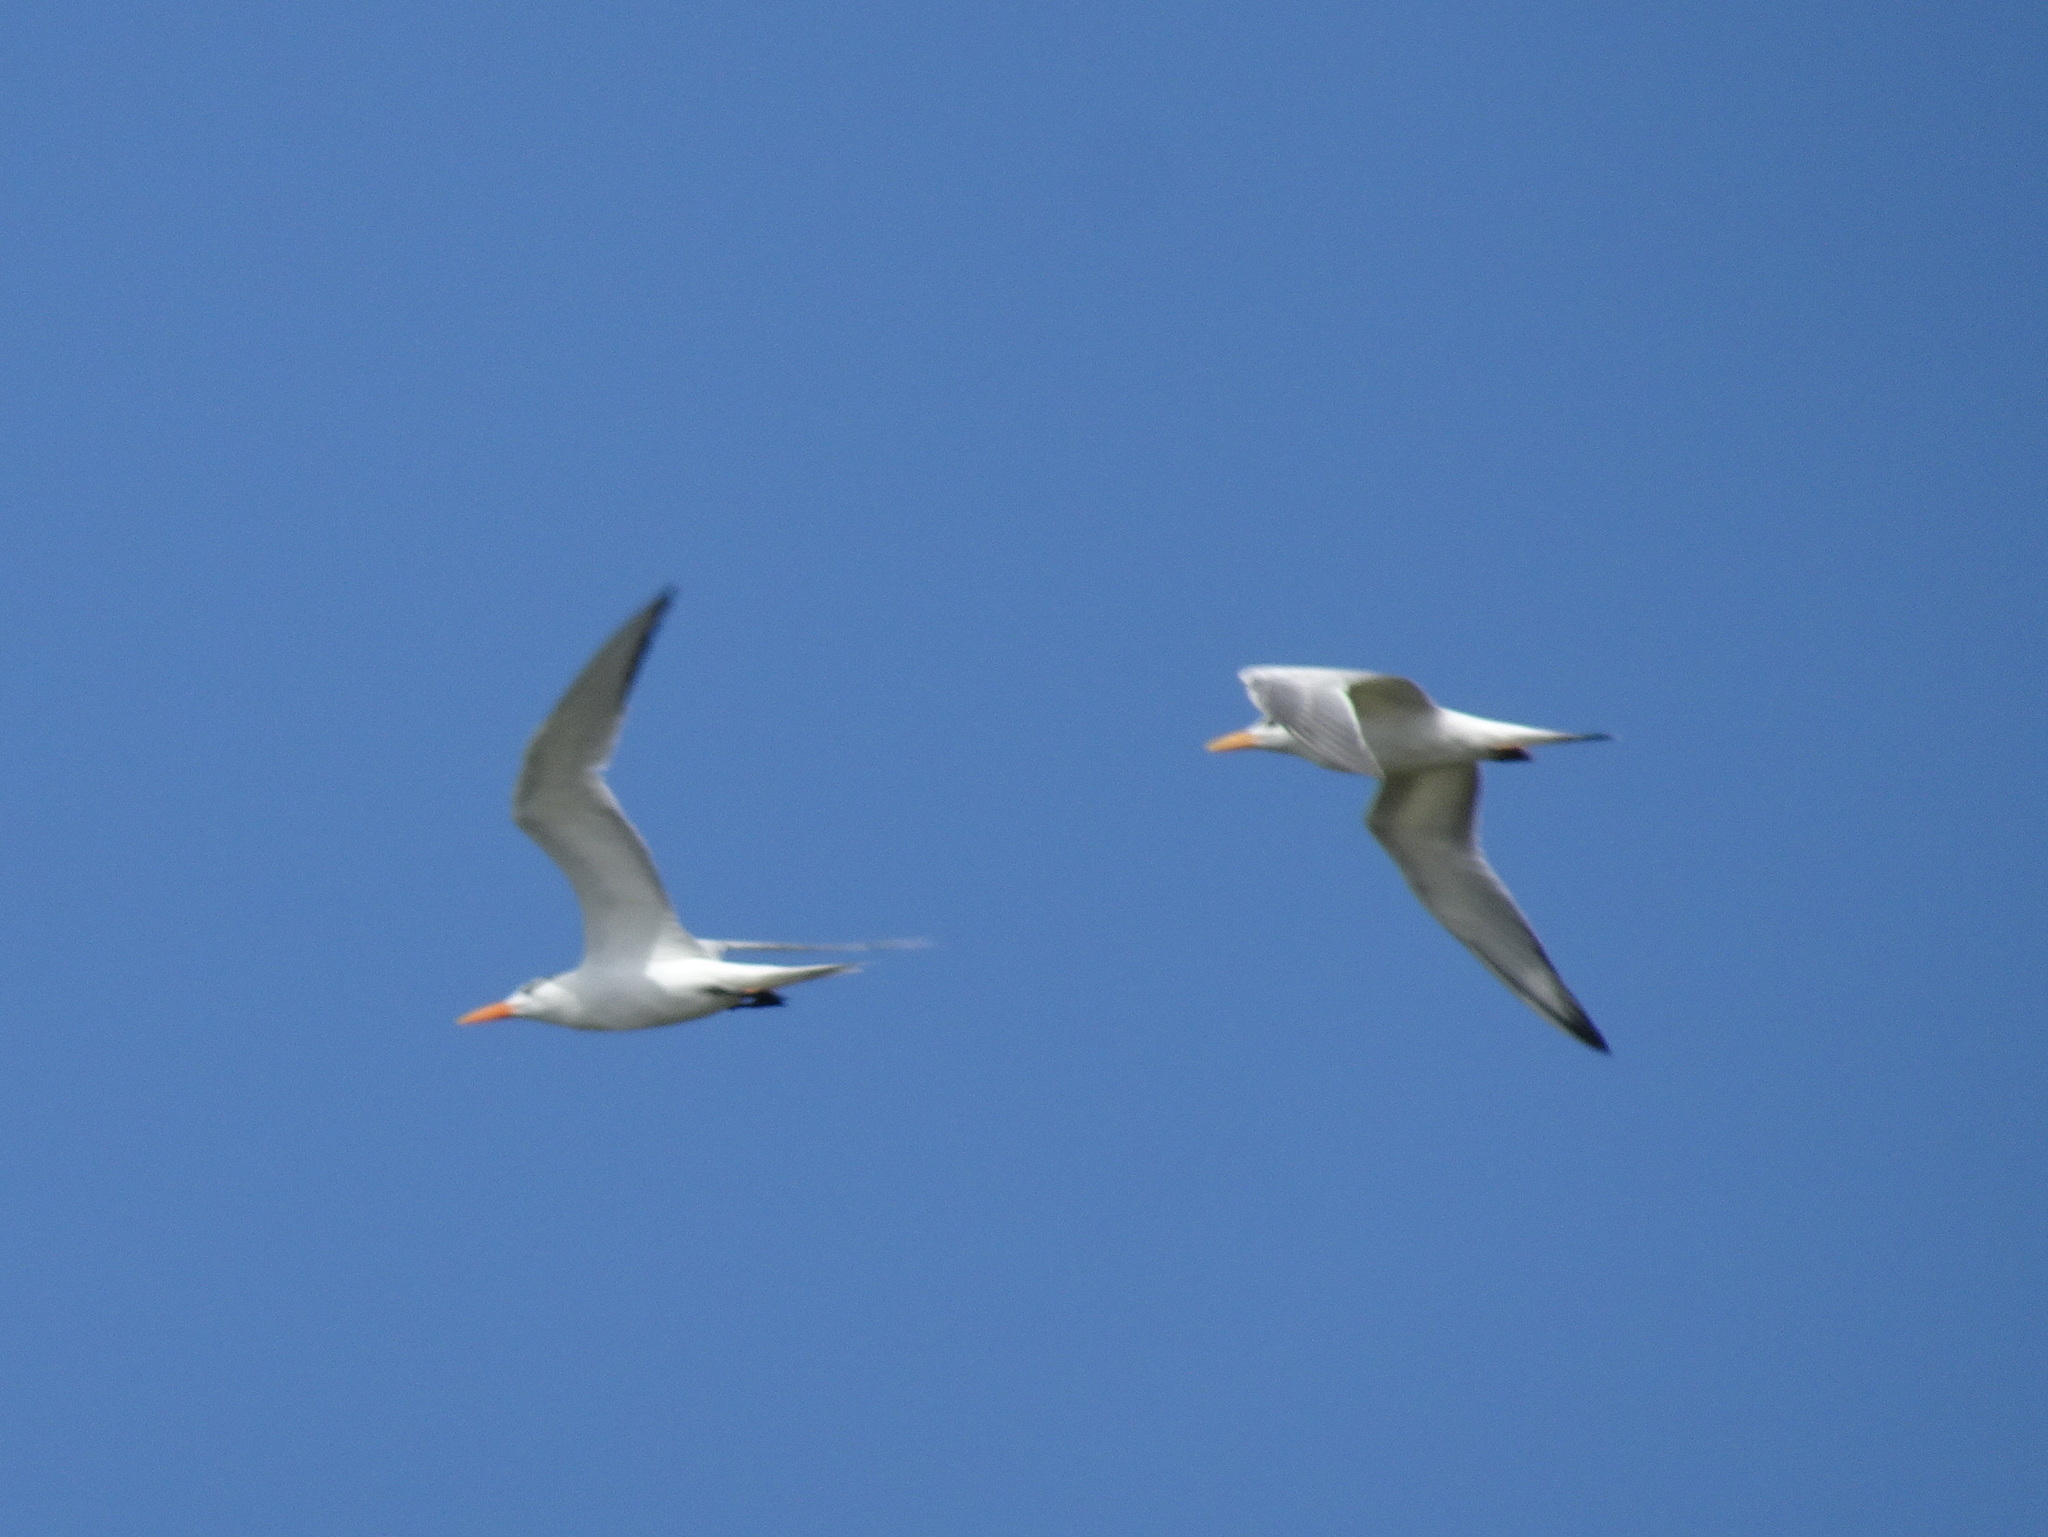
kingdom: Animalia
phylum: Chordata
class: Aves
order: Charadriiformes
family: Laridae
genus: Thalasseus
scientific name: Thalasseus maximus
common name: Royal tern
